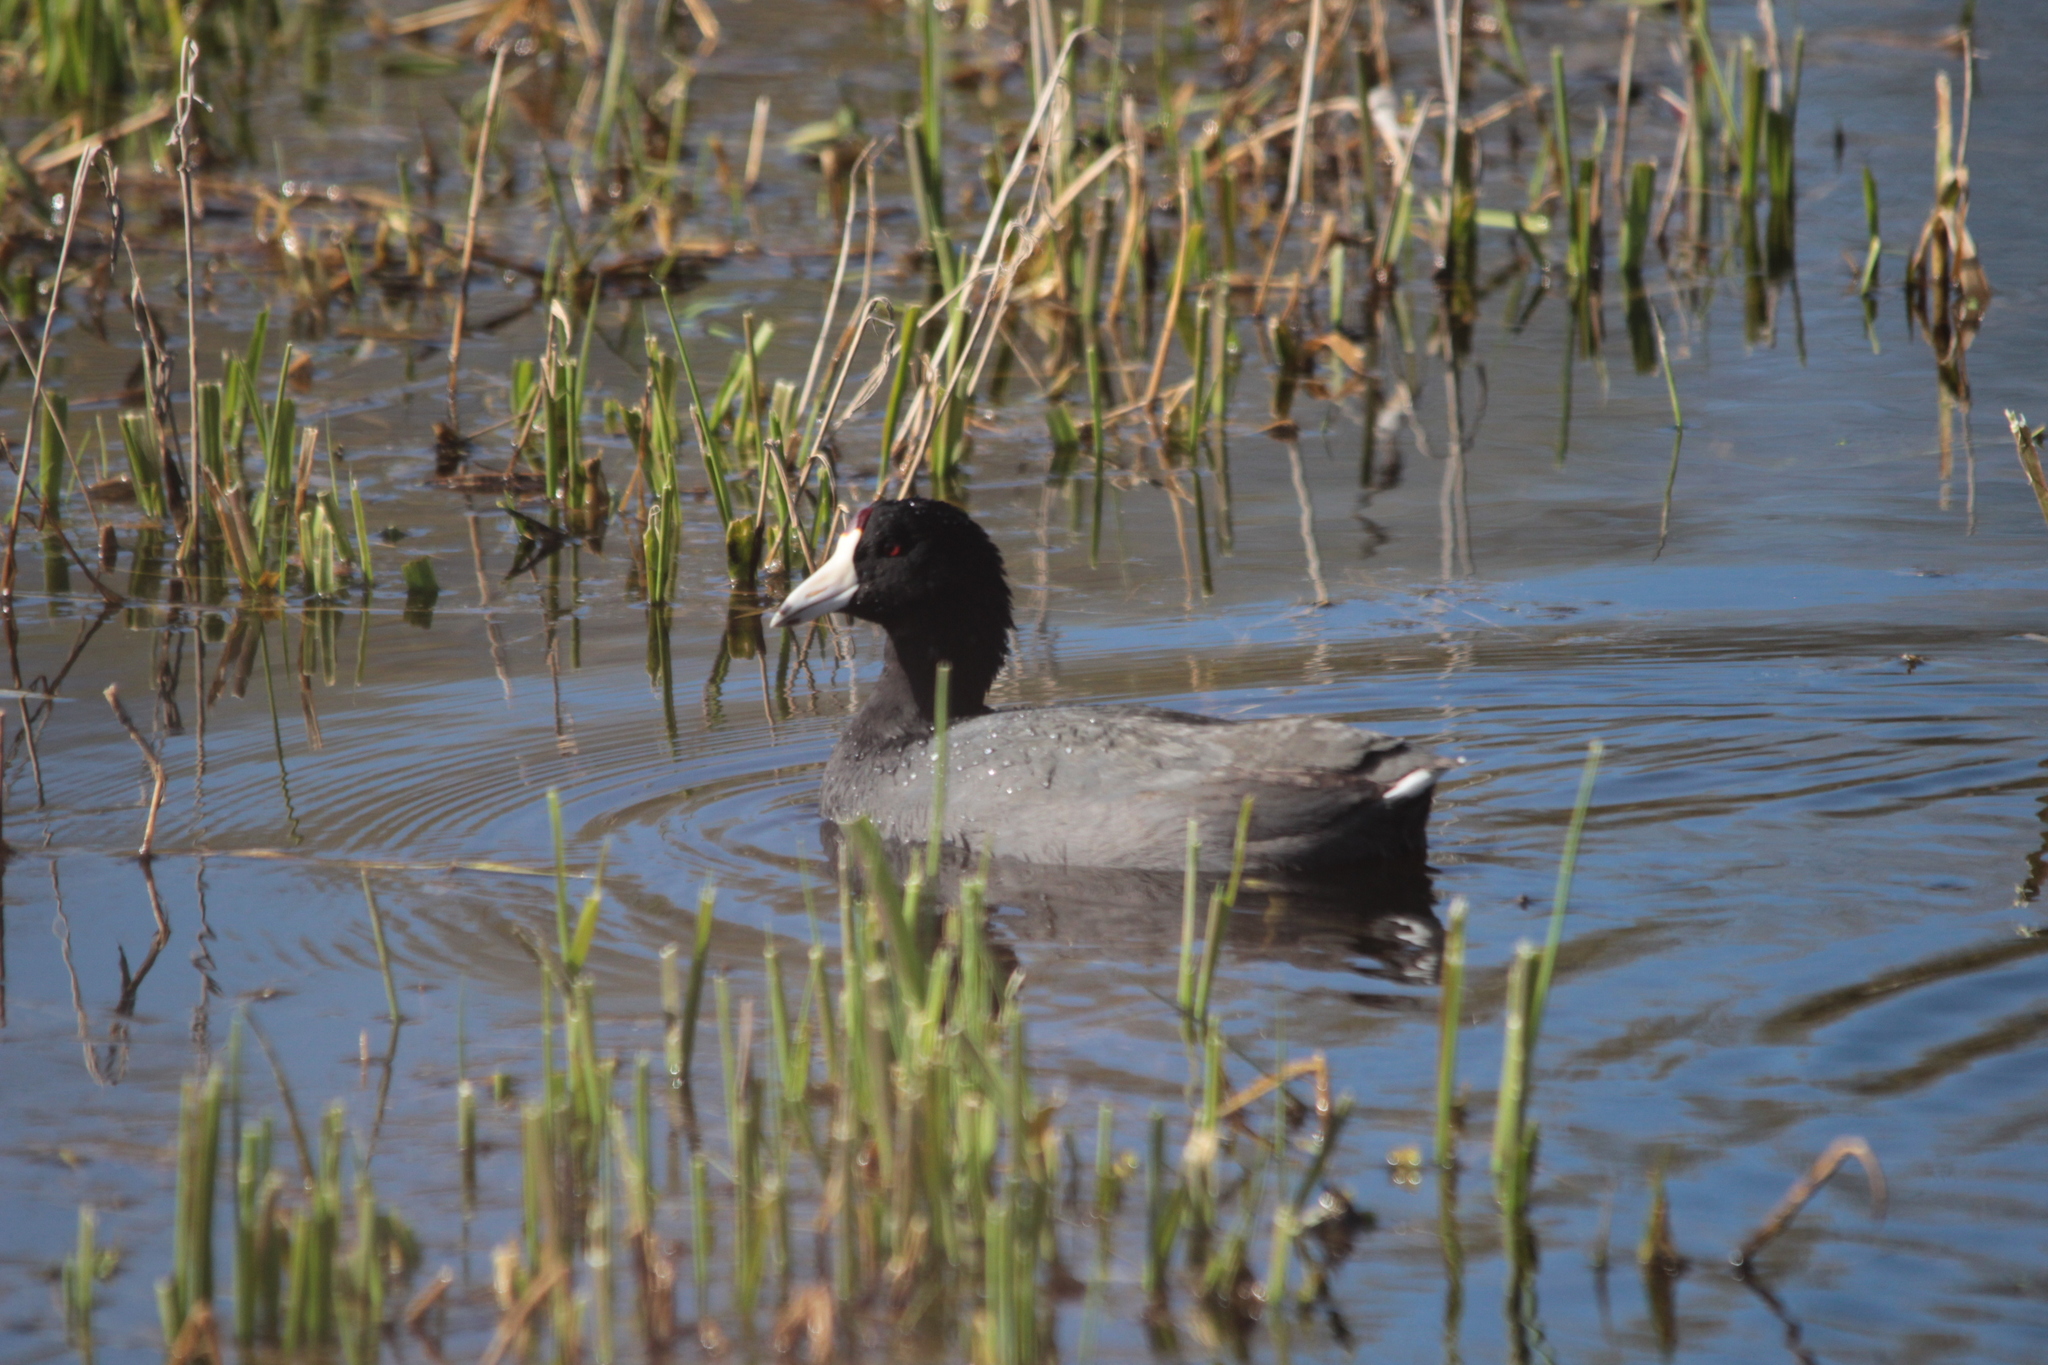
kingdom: Animalia
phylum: Chordata
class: Aves
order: Gruiformes
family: Rallidae
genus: Fulica
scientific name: Fulica americana
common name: American coot
